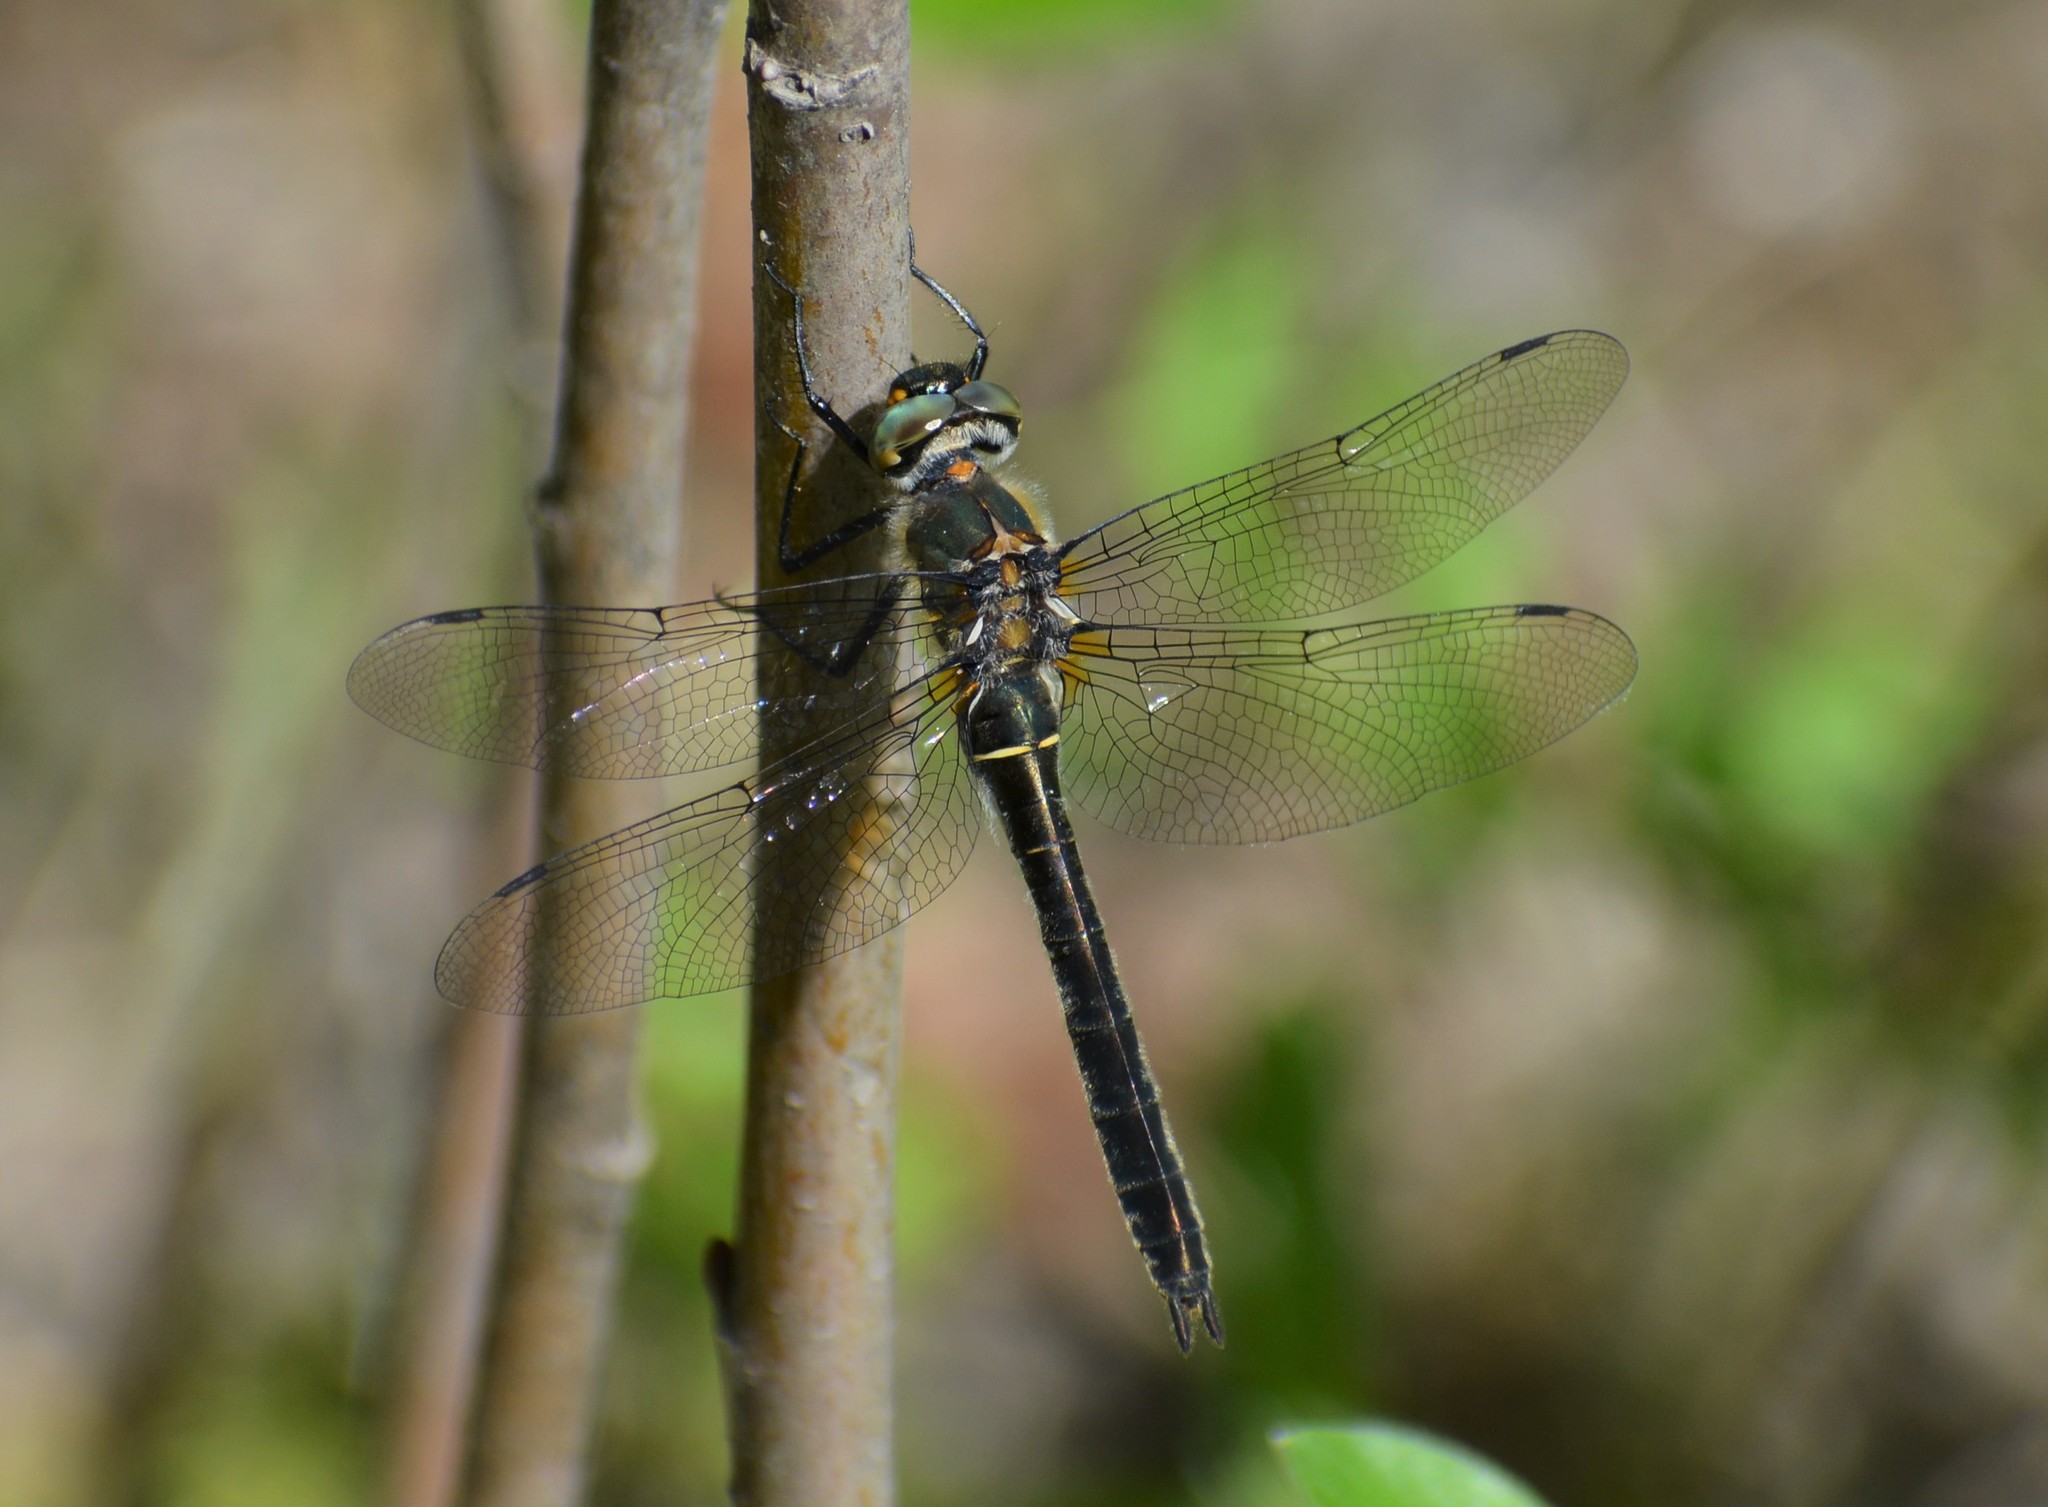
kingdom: Animalia
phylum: Arthropoda
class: Insecta
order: Odonata
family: Corduliidae
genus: Cordulia
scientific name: Cordulia shurtleffii
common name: American emerald
